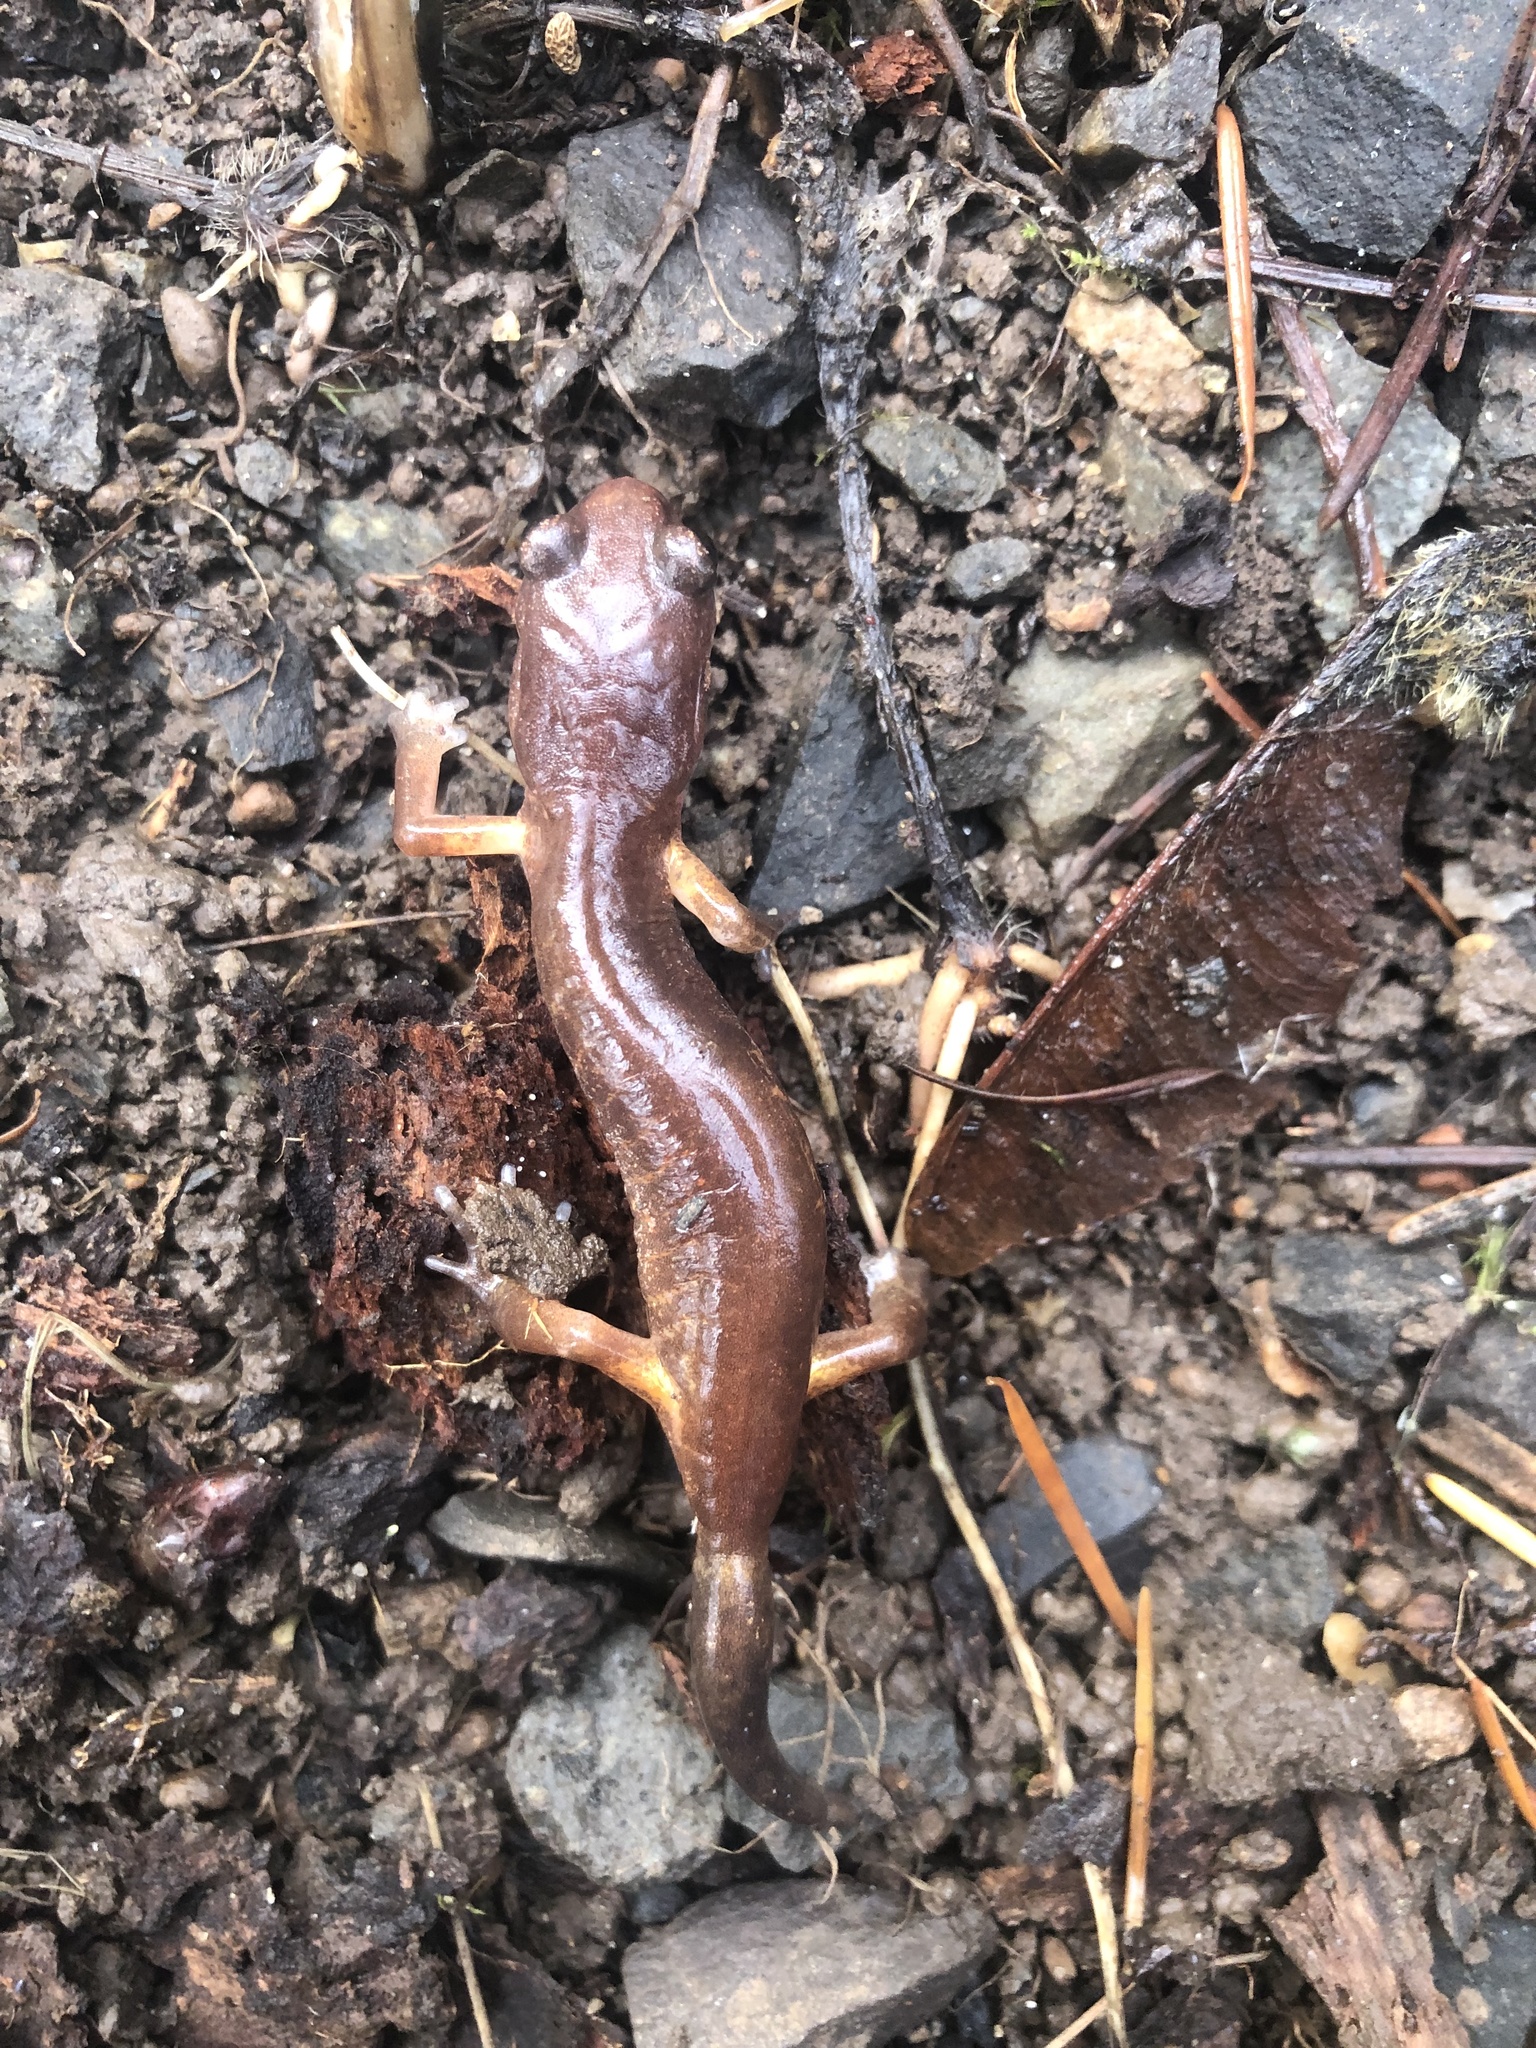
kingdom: Animalia
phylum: Chordata
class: Amphibia
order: Caudata
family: Plethodontidae
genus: Ensatina
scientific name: Ensatina eschscholtzii
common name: Ensatina
